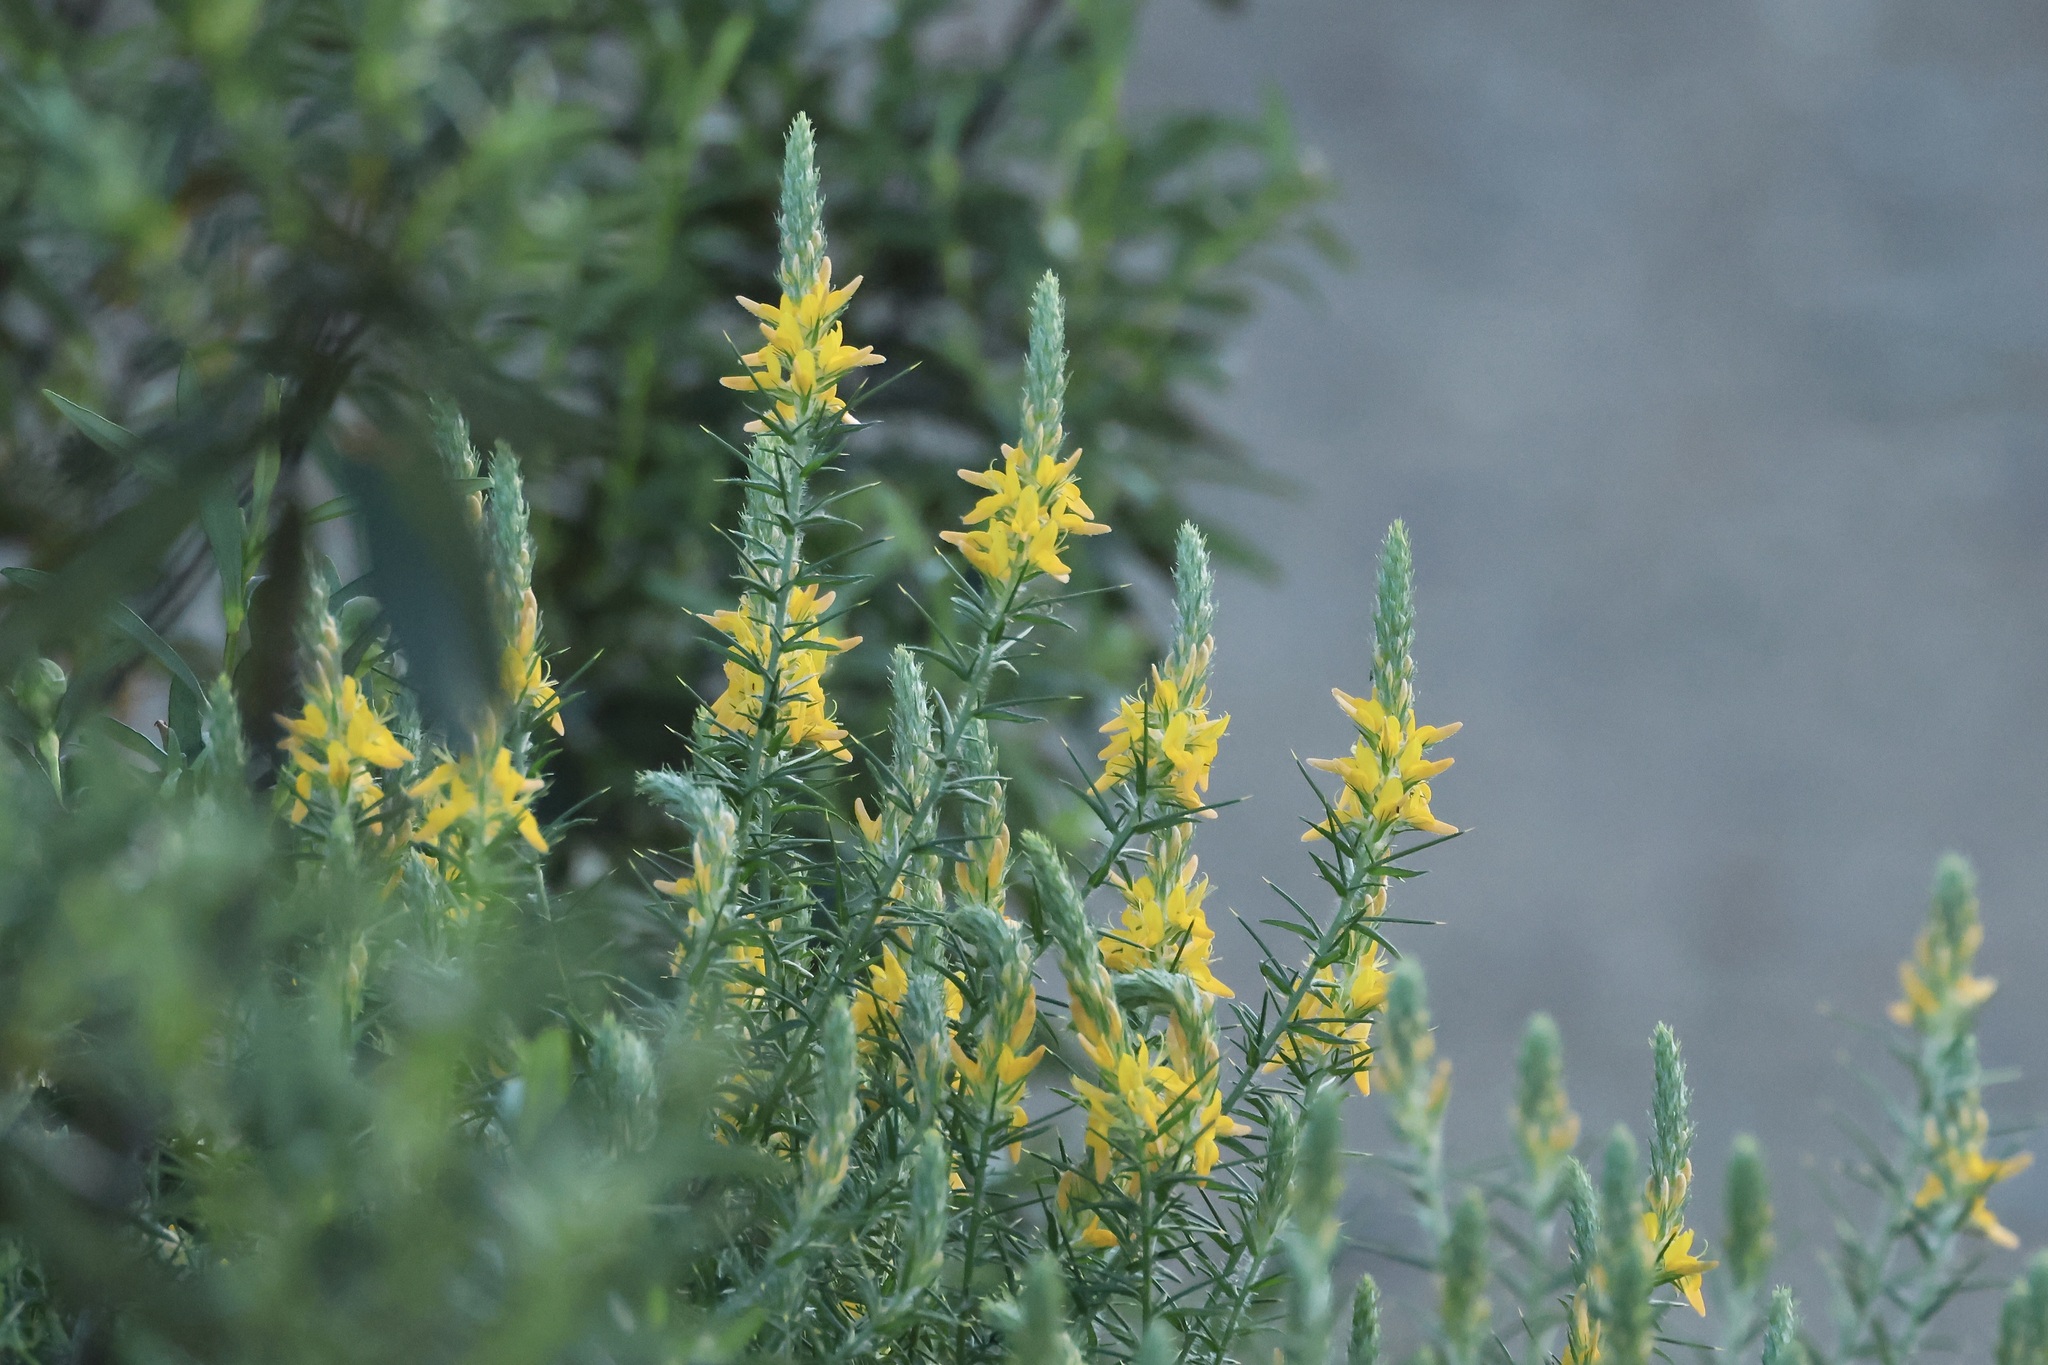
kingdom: Plantae
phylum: Tracheophyta
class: Magnoliopsida
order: Fabales
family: Fabaceae
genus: Genista
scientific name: Genista hirsuta
